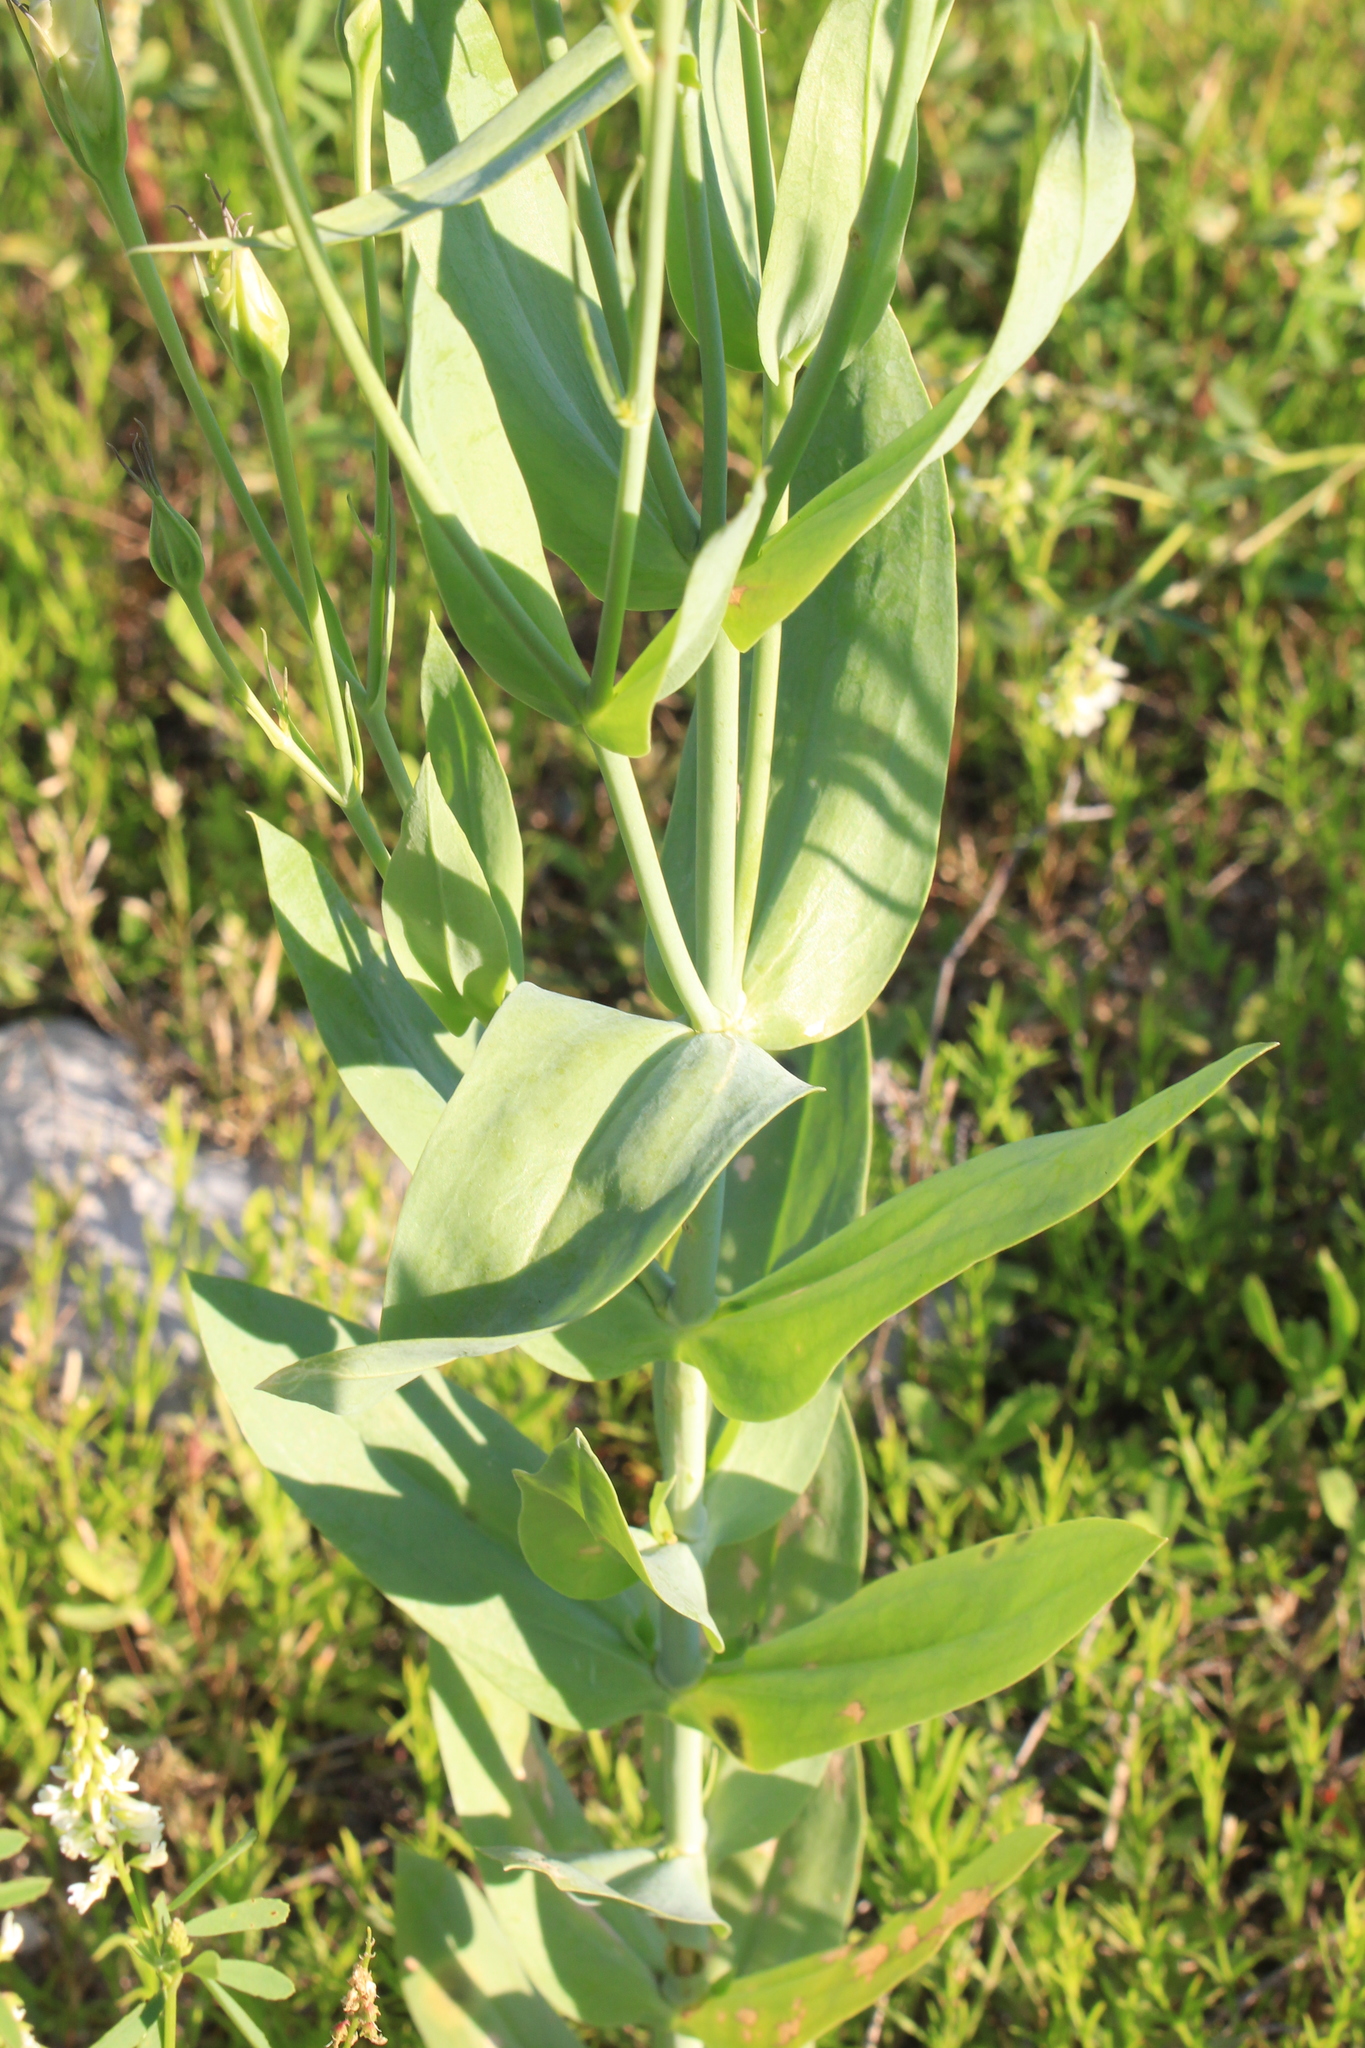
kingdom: Plantae
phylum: Tracheophyta
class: Magnoliopsida
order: Gentianales
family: Gentianaceae
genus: Eustoma
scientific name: Eustoma russellianum
